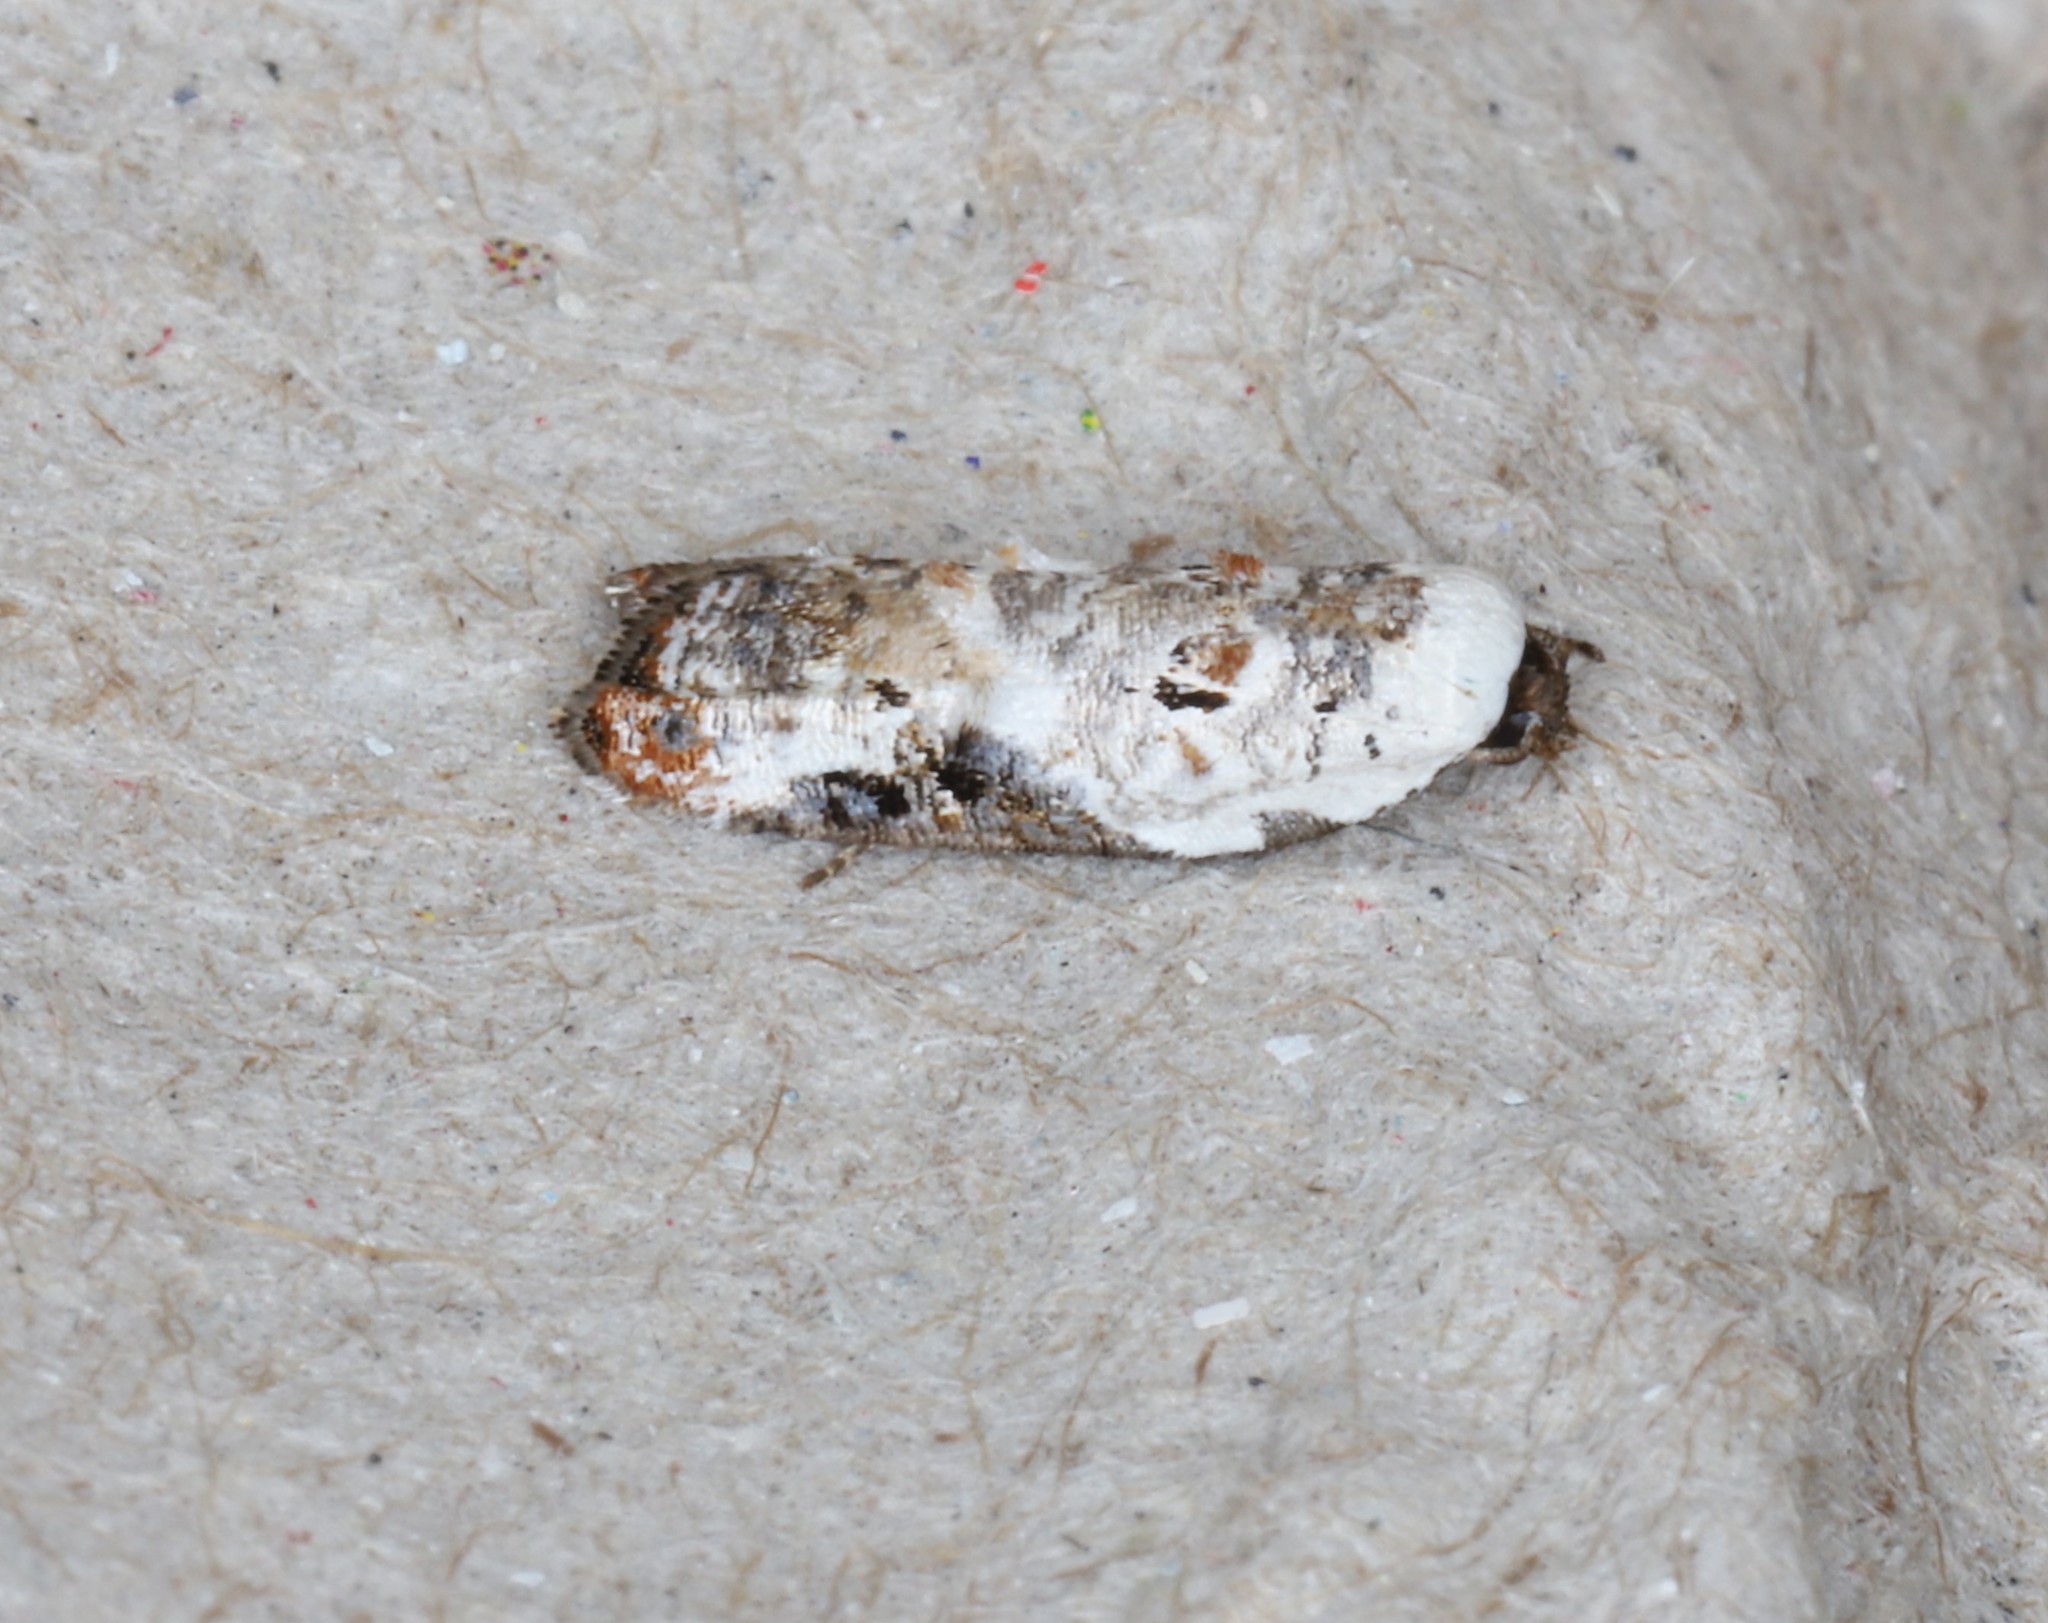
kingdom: Animalia
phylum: Arthropoda
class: Insecta
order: Lepidoptera
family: Tortricidae
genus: Acleris
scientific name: Acleris nivisellana
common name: Snowy-shouldered acleris moth
